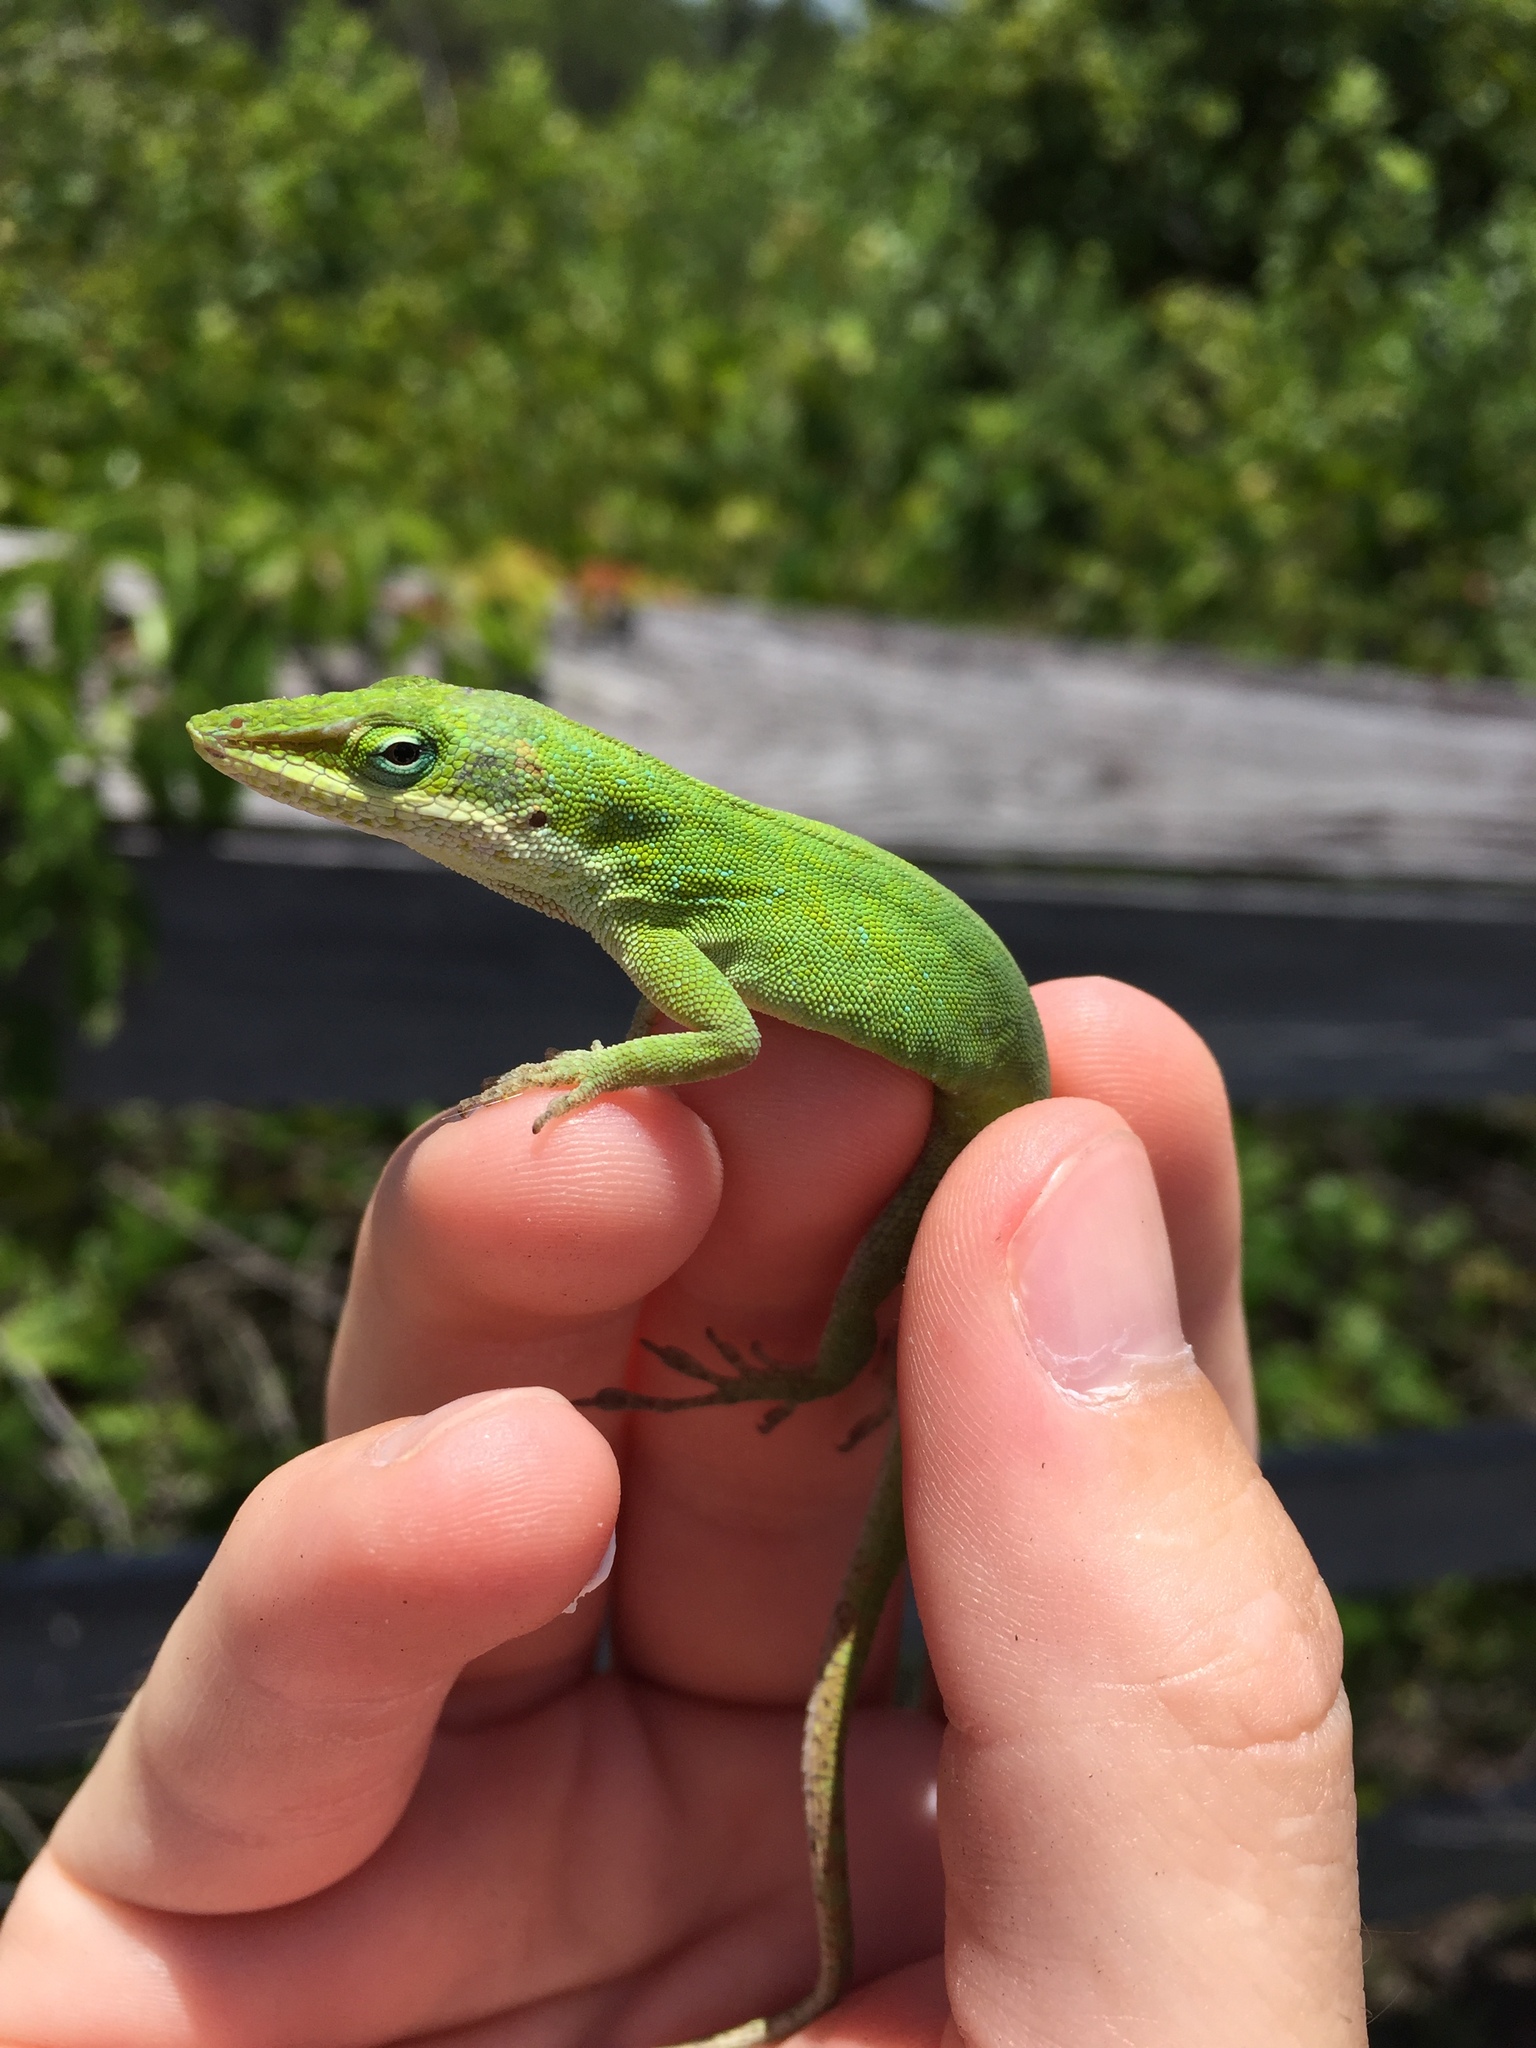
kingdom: Animalia
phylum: Chordata
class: Squamata
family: Dactyloidae
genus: Anolis
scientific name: Anolis carolinensis
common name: Green anole
